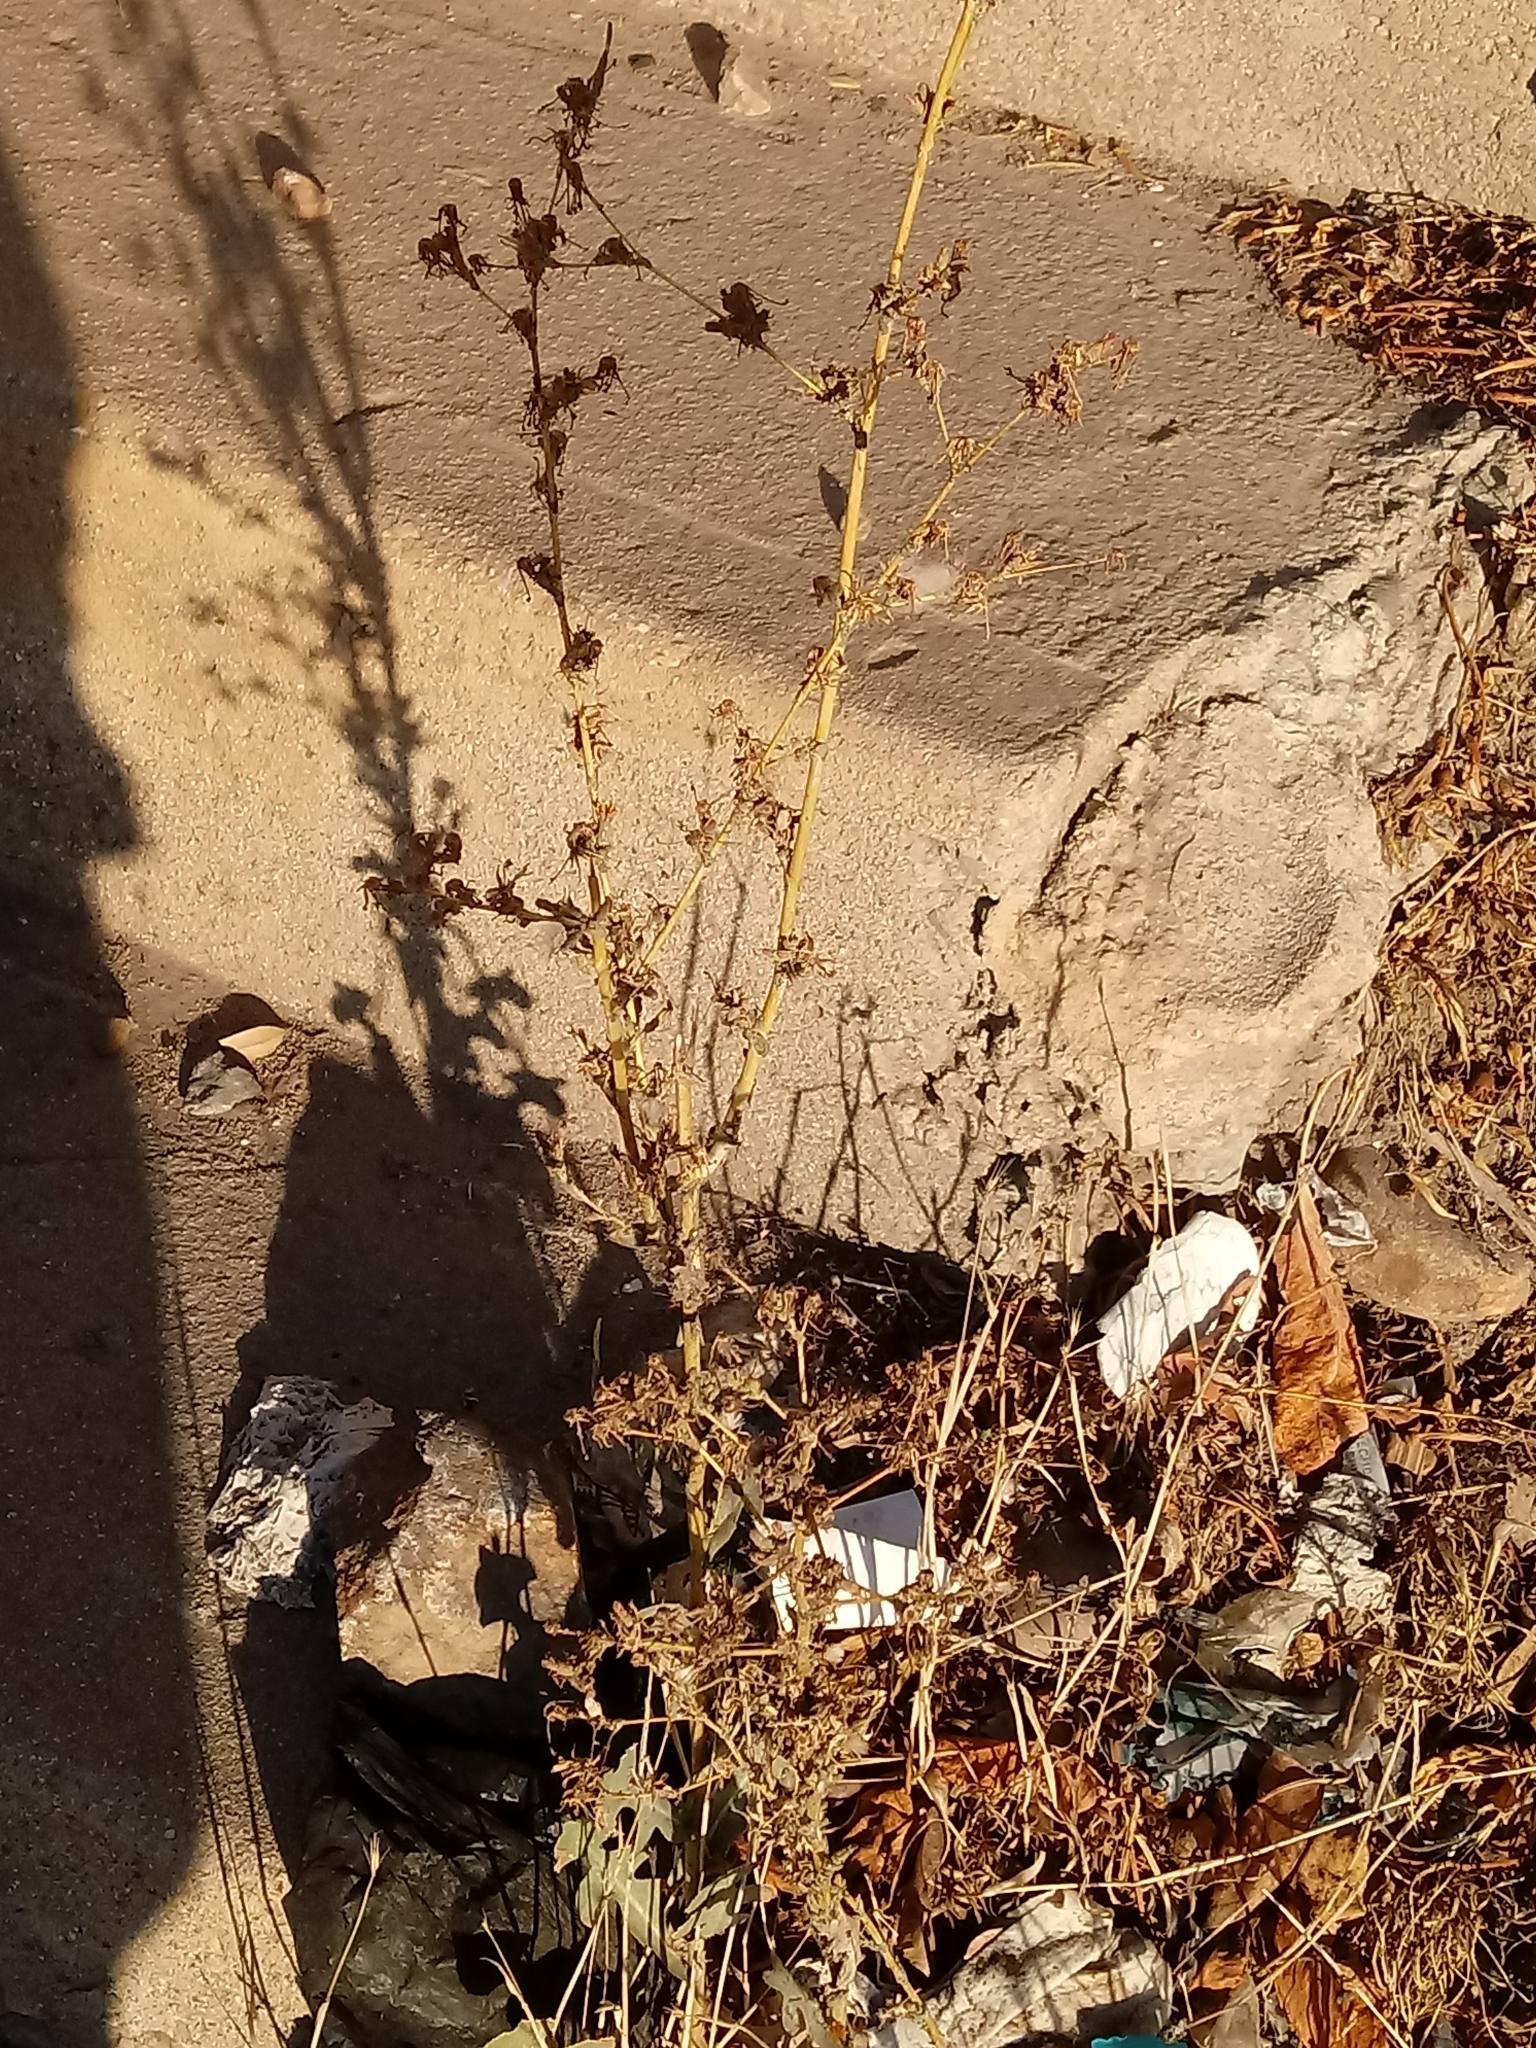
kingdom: Plantae
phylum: Tracheophyta
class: Magnoliopsida
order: Asterales
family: Asteraceae
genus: Lactuca
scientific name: Lactuca serriola
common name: Prickly lettuce
